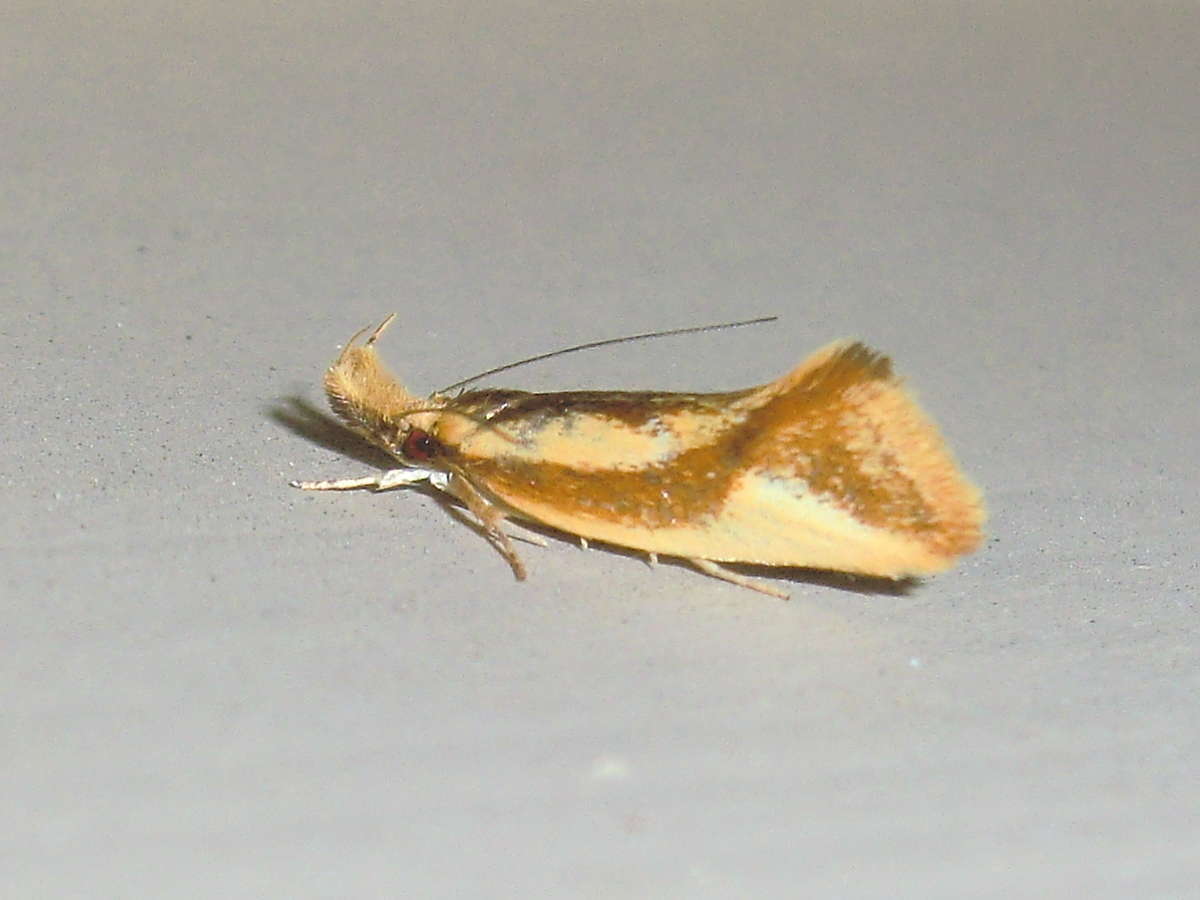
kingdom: Animalia
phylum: Arthropoda
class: Insecta
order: Lepidoptera
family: Oecophoridae
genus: Thema
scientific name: Thema psammoxantha
